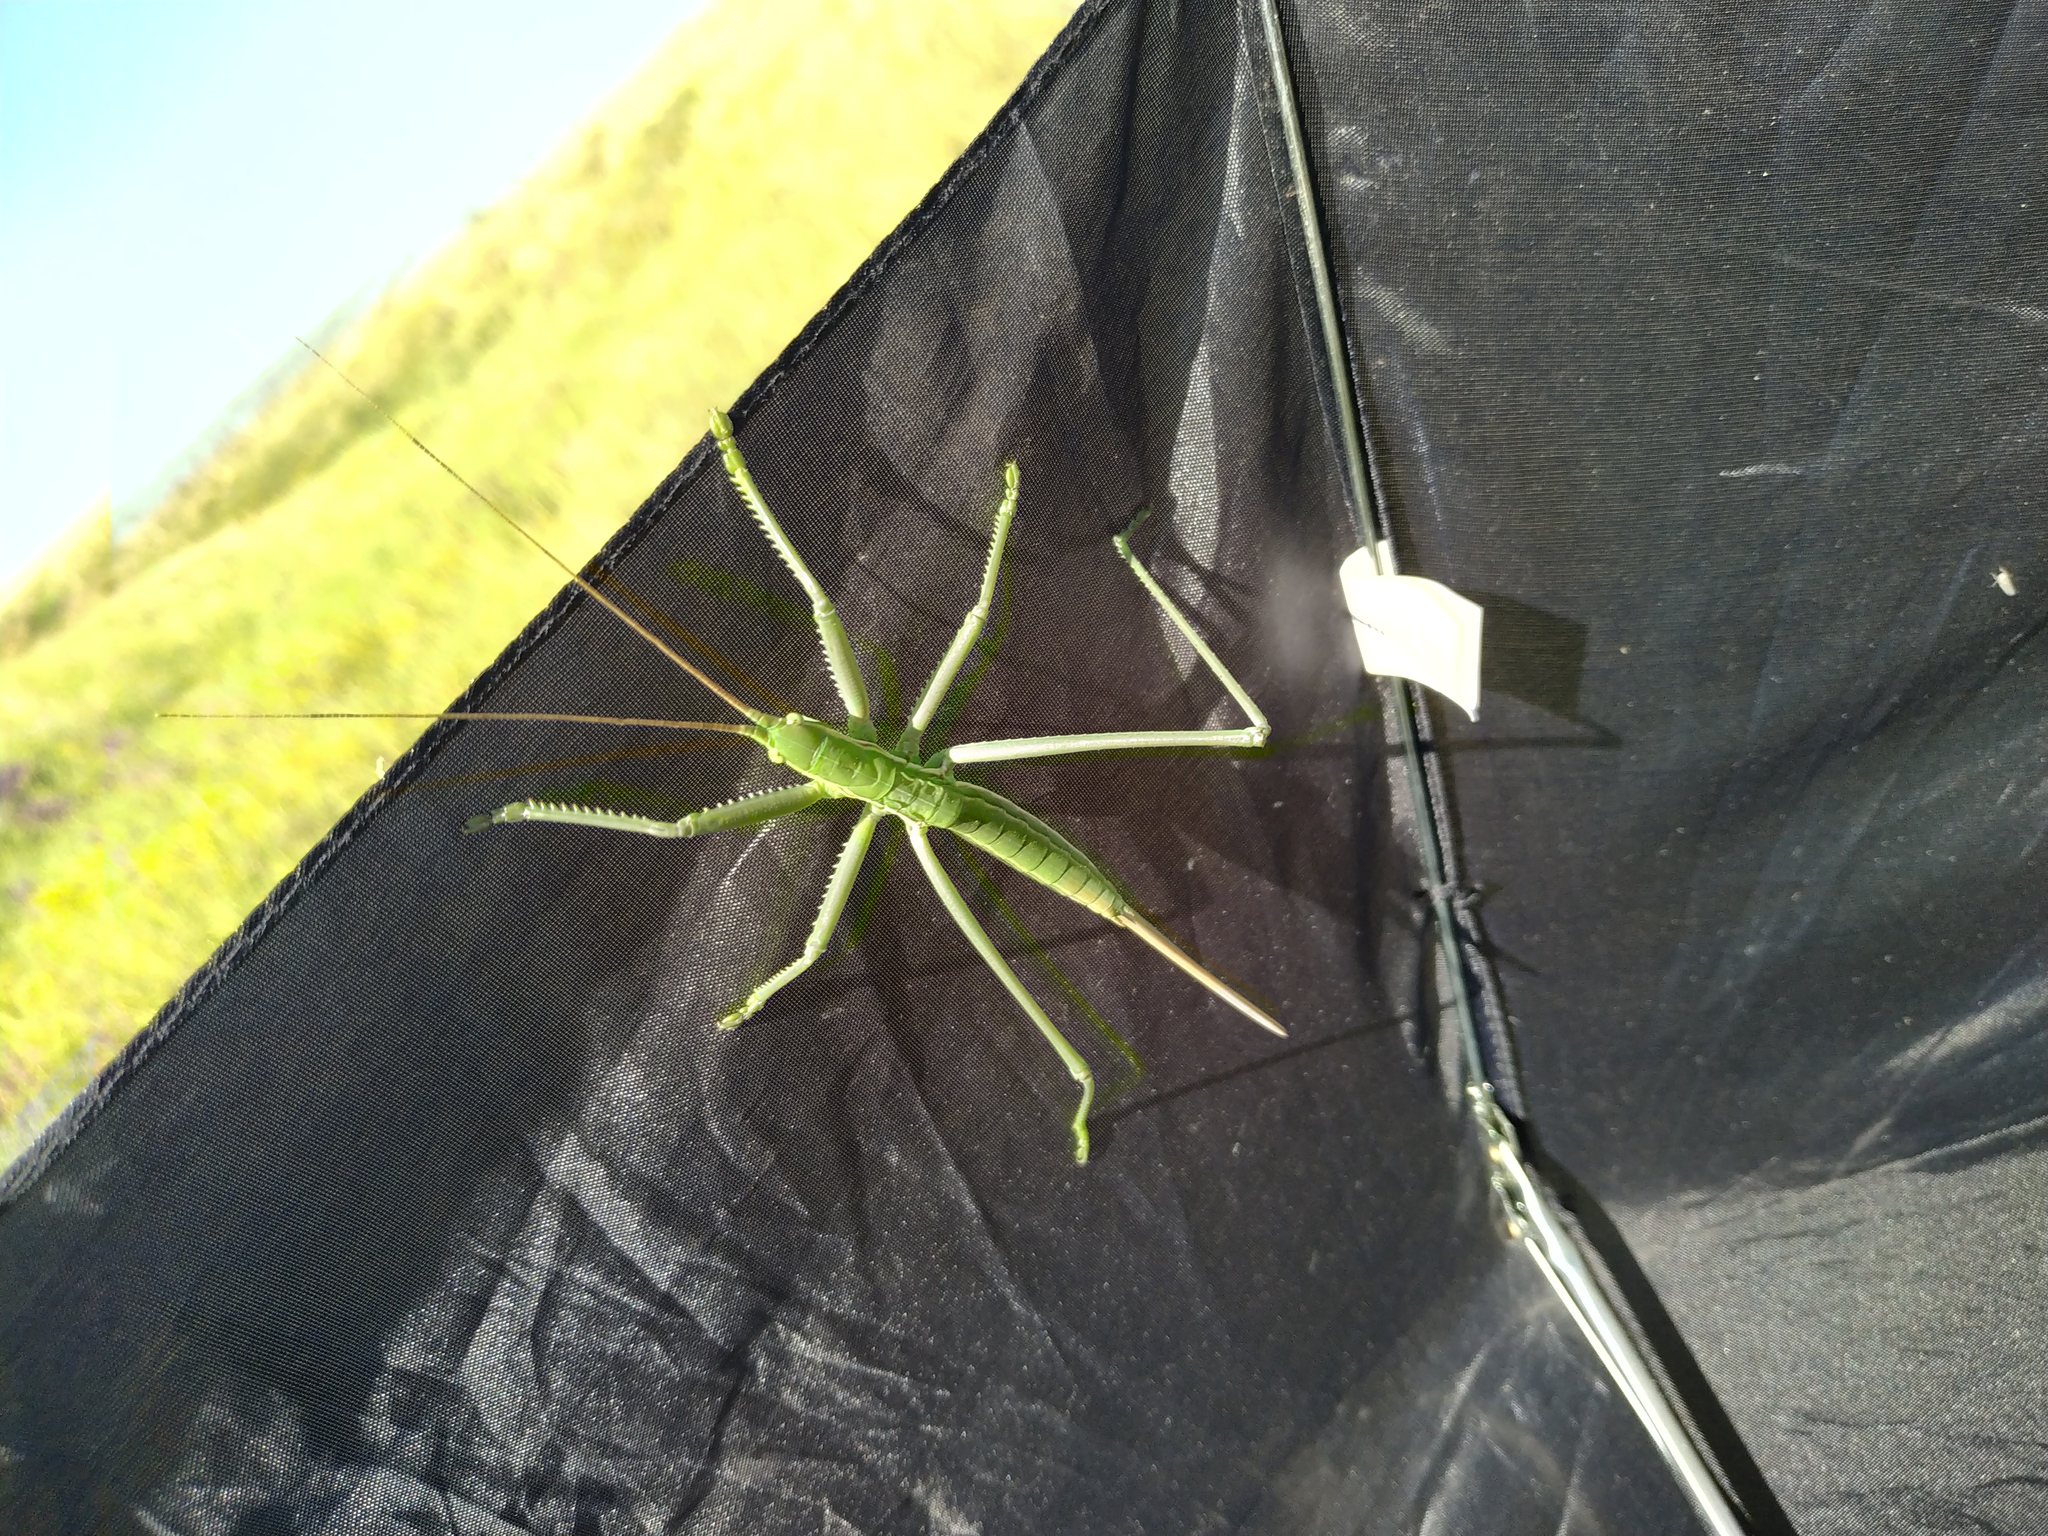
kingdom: Animalia
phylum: Arthropoda
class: Insecta
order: Orthoptera
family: Tettigoniidae
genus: Saga
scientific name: Saga pedo
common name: Common predatory bush-cricket
